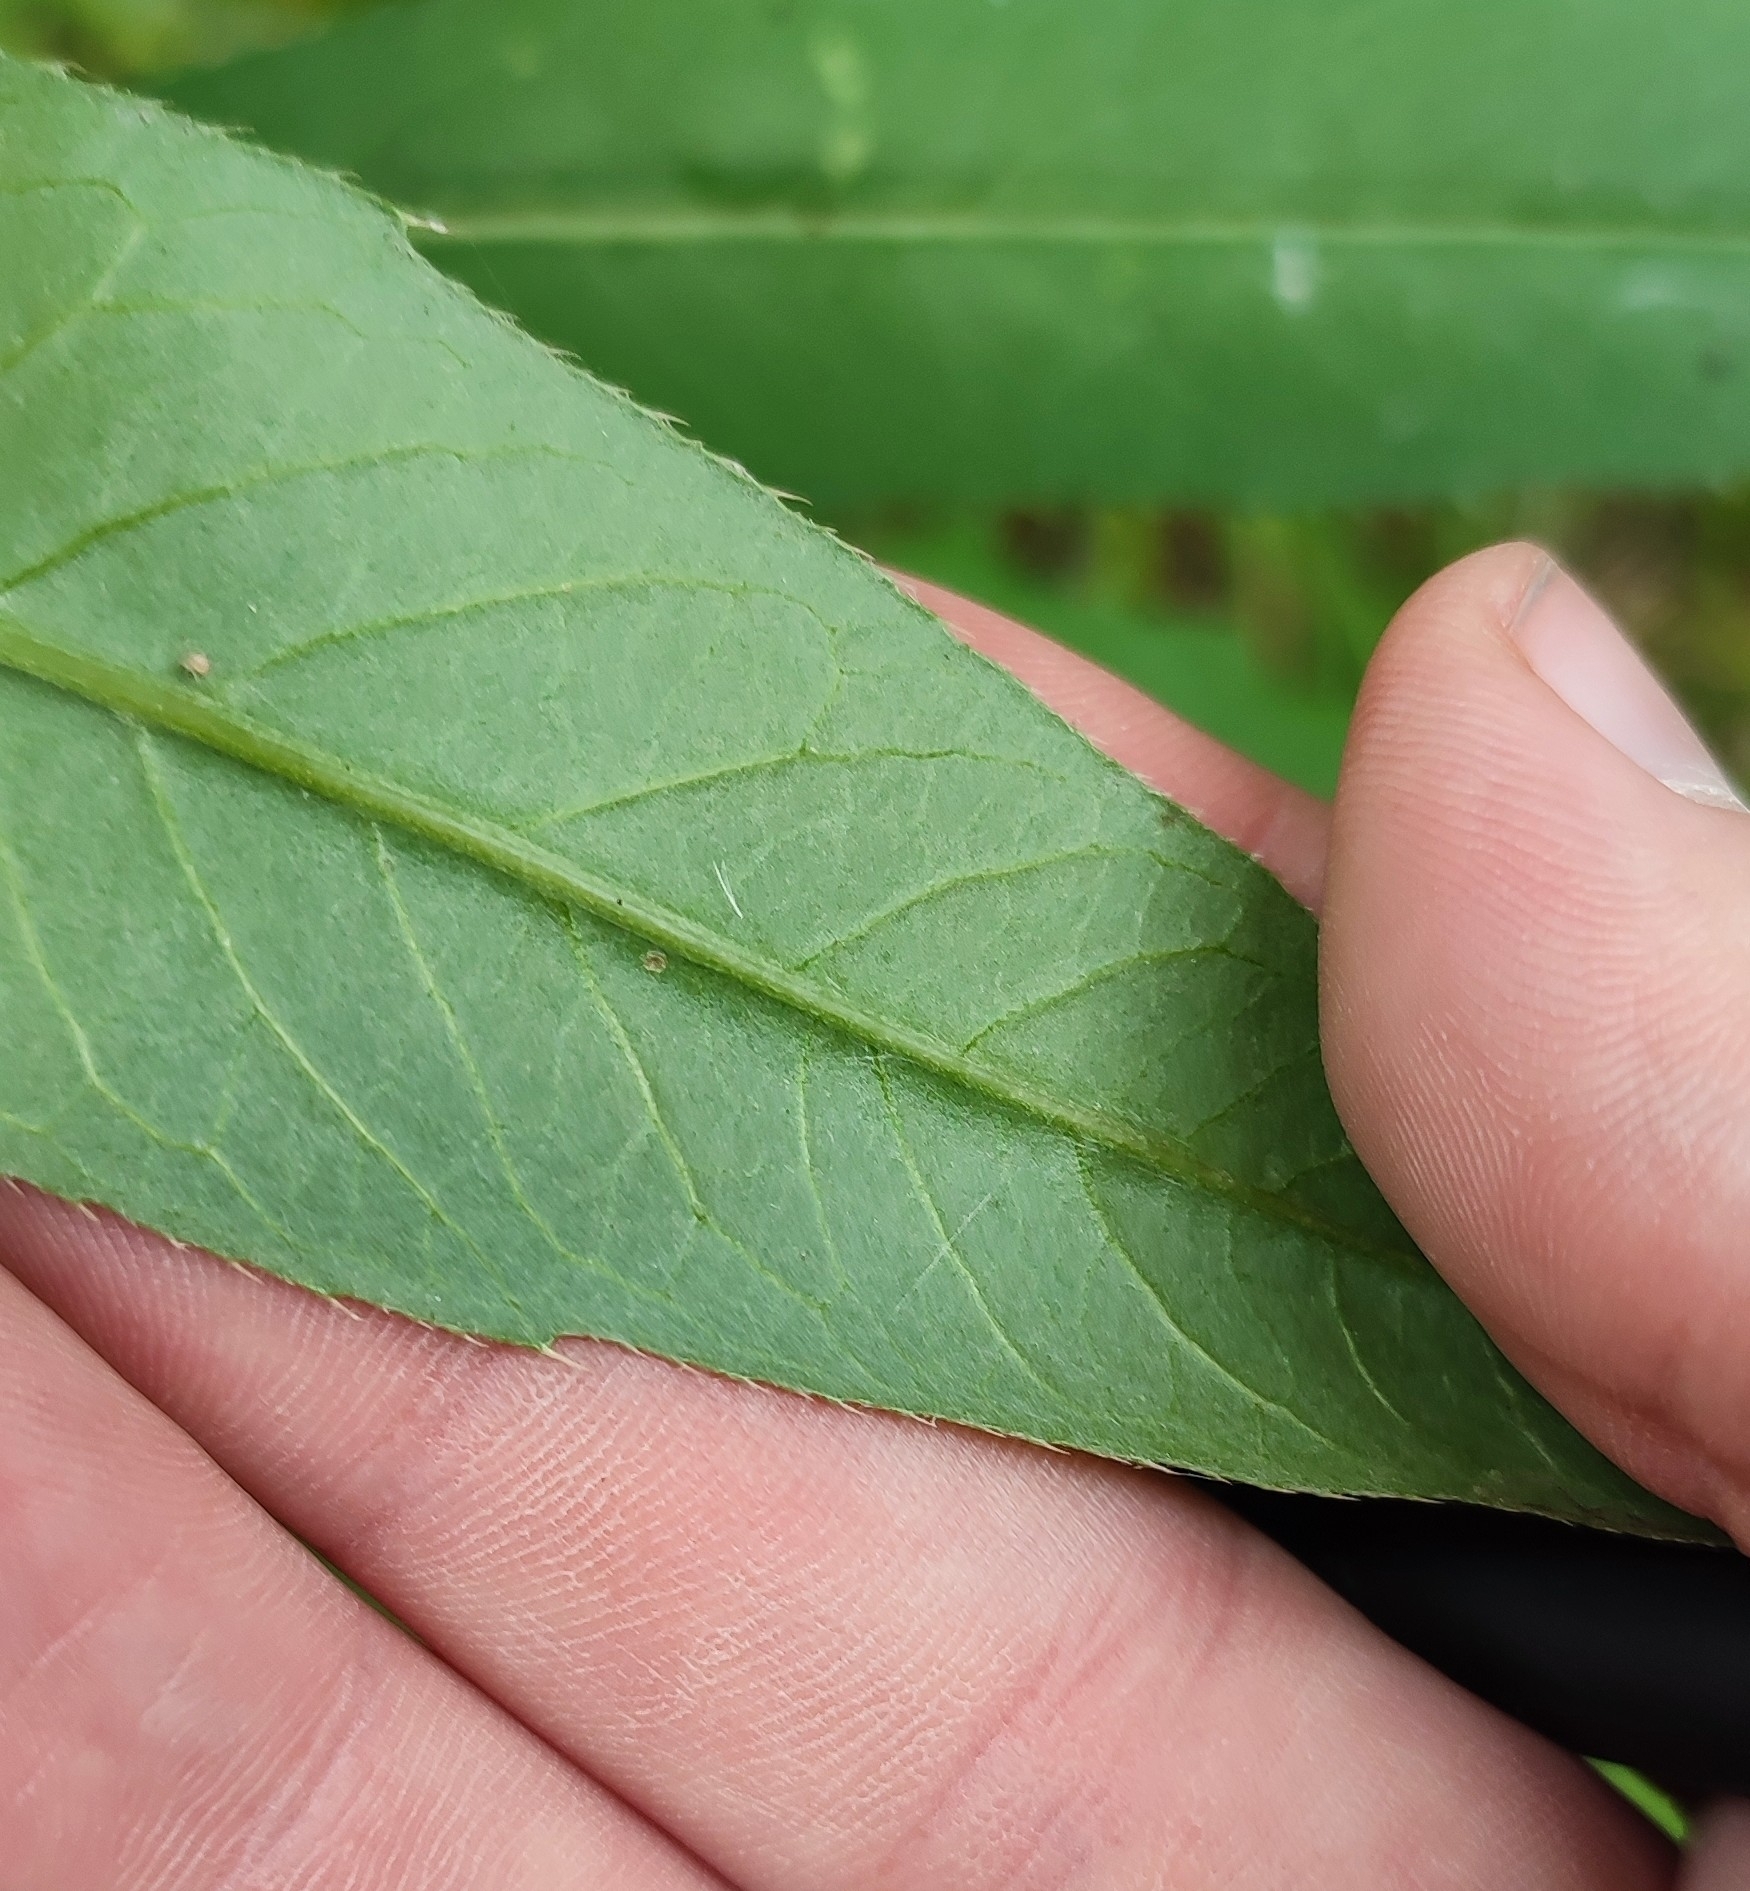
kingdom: Plantae
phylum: Tracheophyta
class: Magnoliopsida
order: Asterales
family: Asteraceae
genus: Cirsium
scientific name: Cirsium arvense
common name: Creeping thistle
